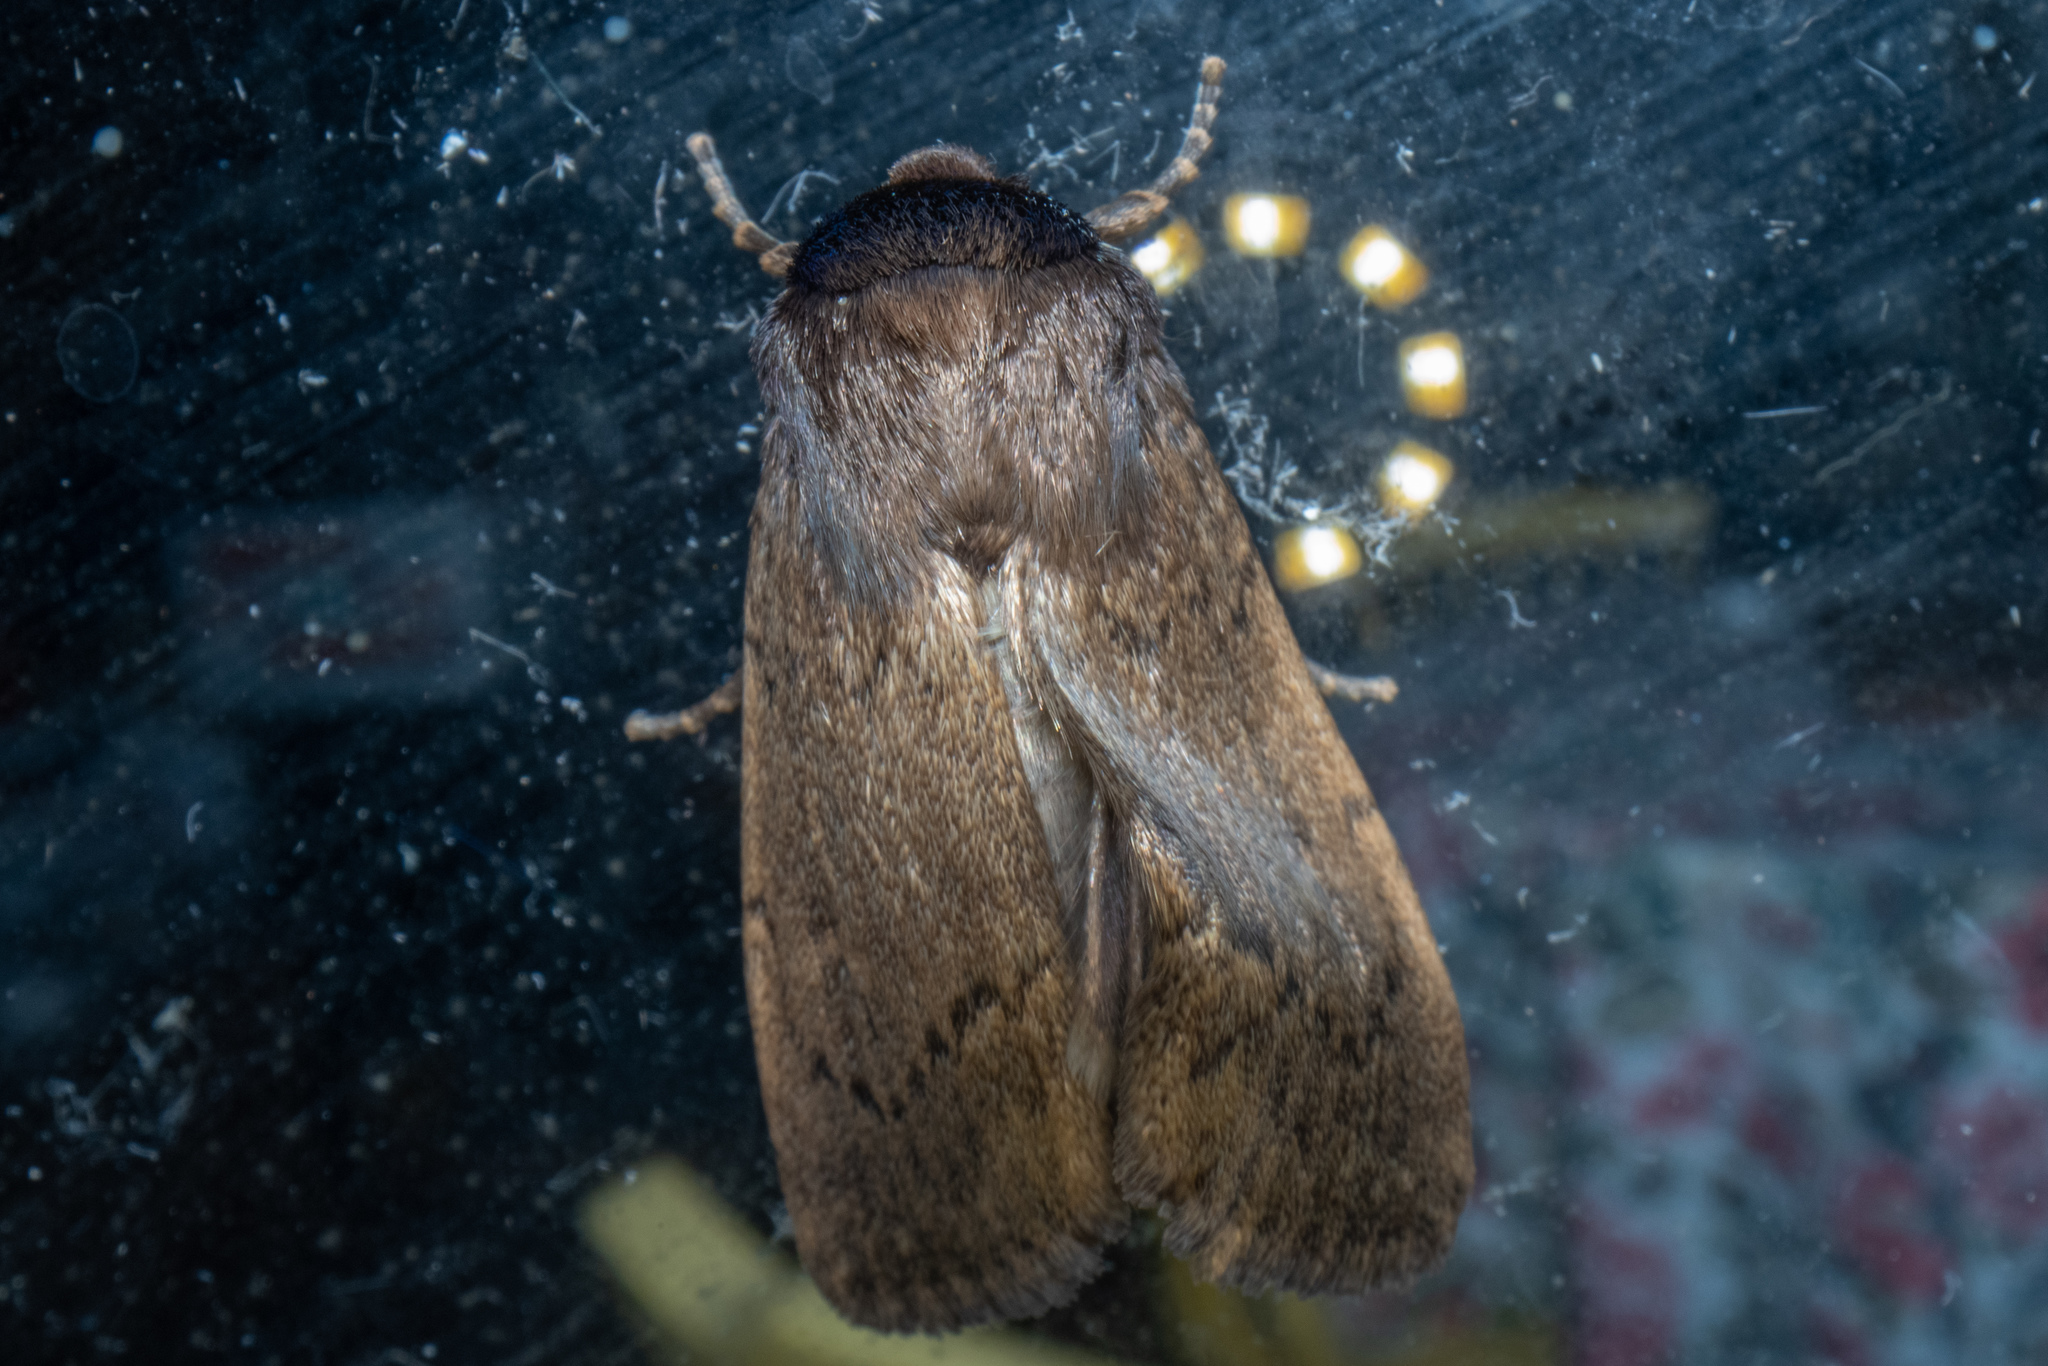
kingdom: Animalia
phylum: Arthropoda
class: Insecta
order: Lepidoptera
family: Noctuidae
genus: Bityla
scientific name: Bityla defigurata
